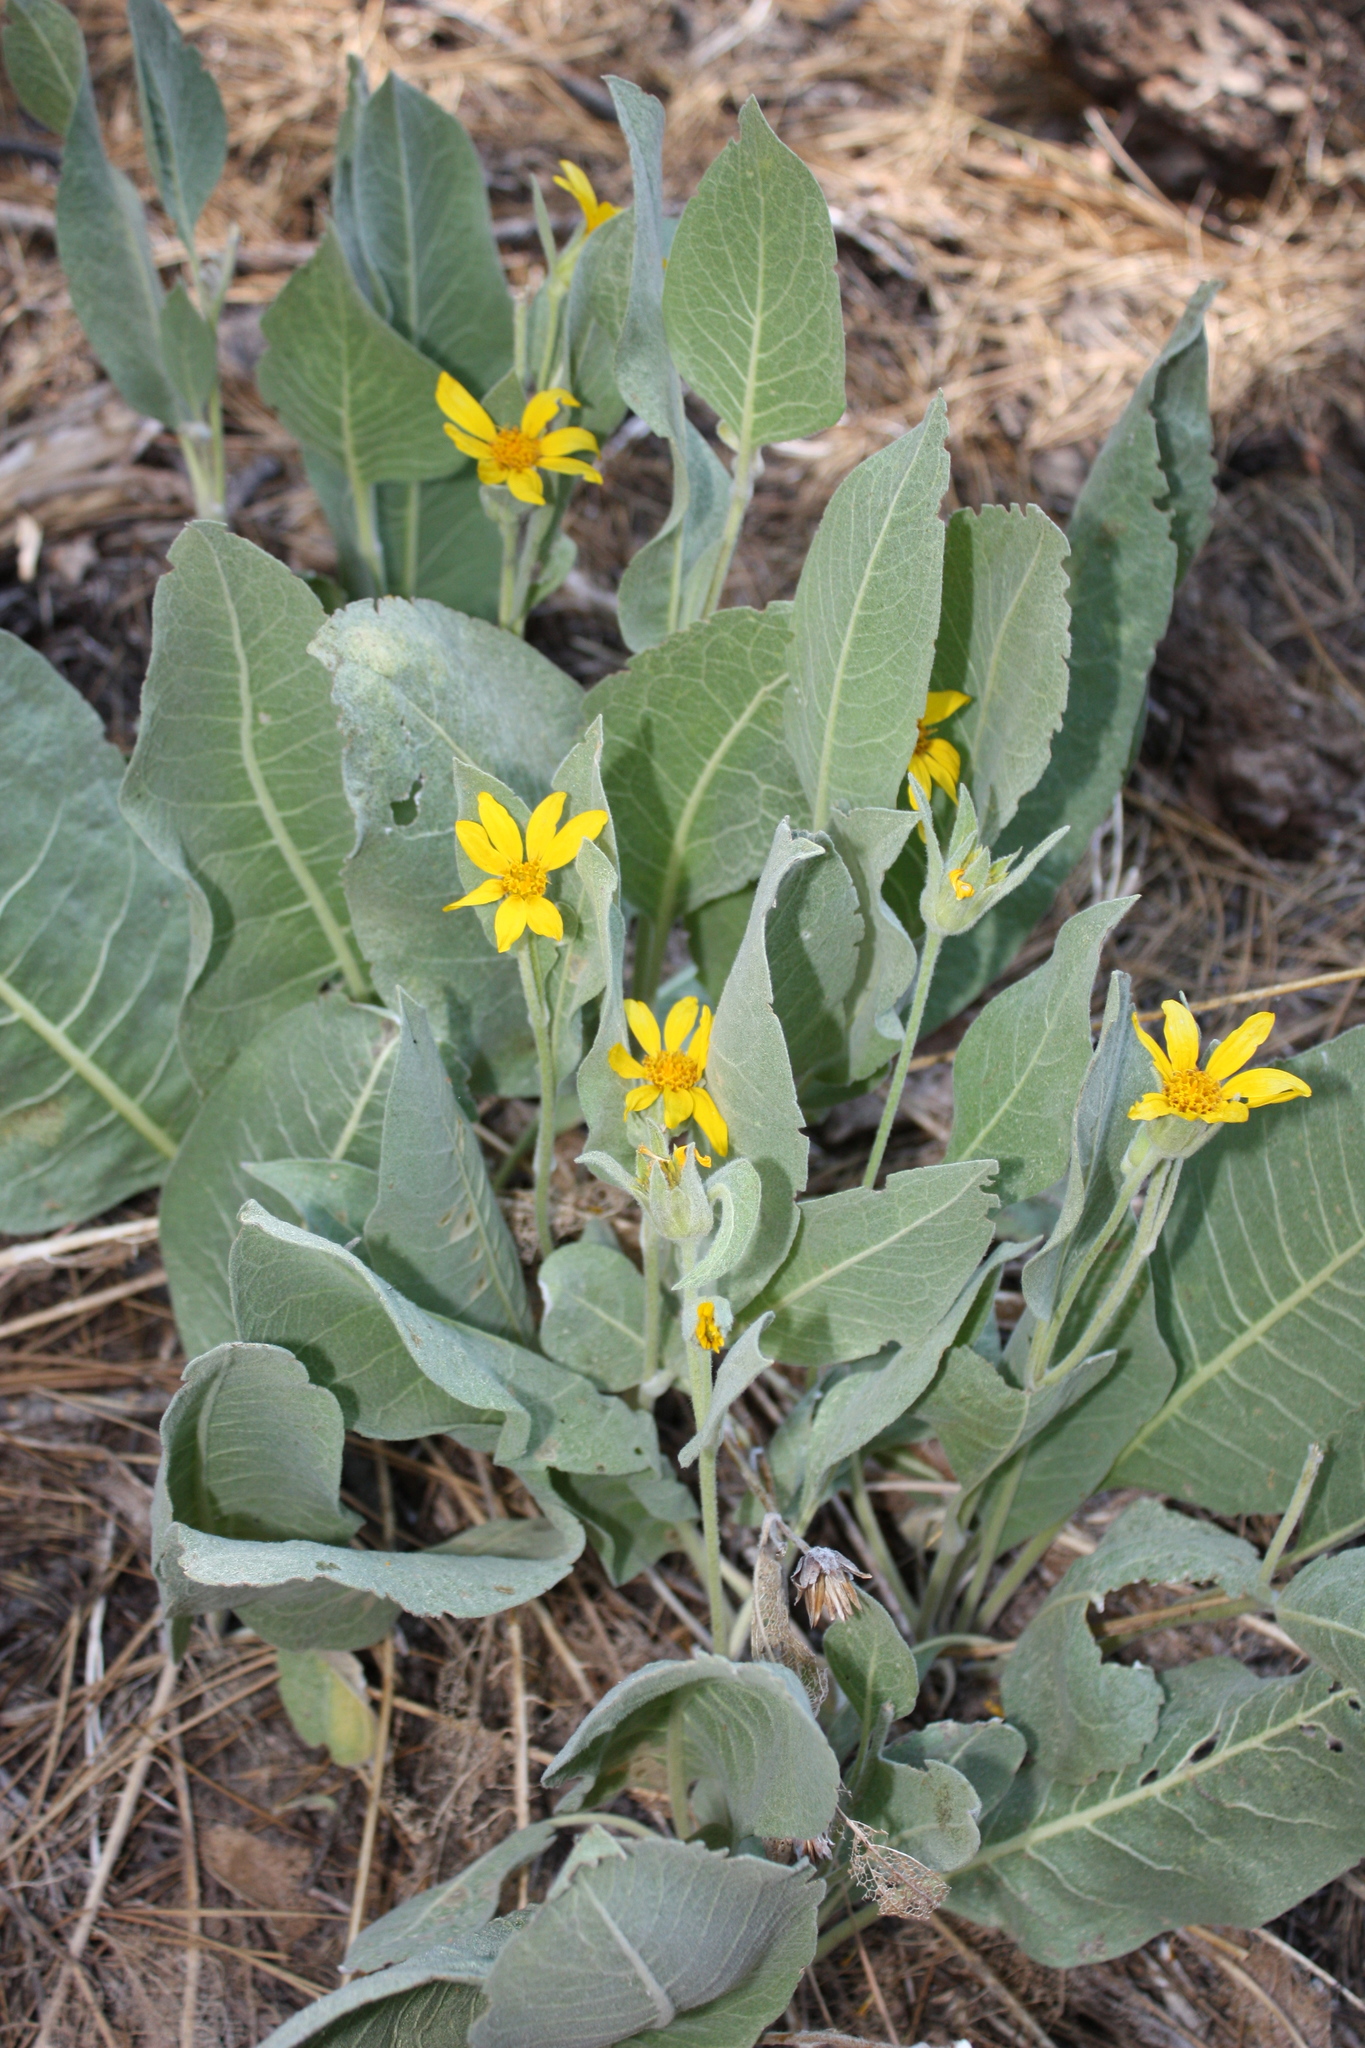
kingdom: Plantae
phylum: Tracheophyta
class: Magnoliopsida
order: Asterales
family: Asteraceae
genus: Wyethia
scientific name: Wyethia mollis
